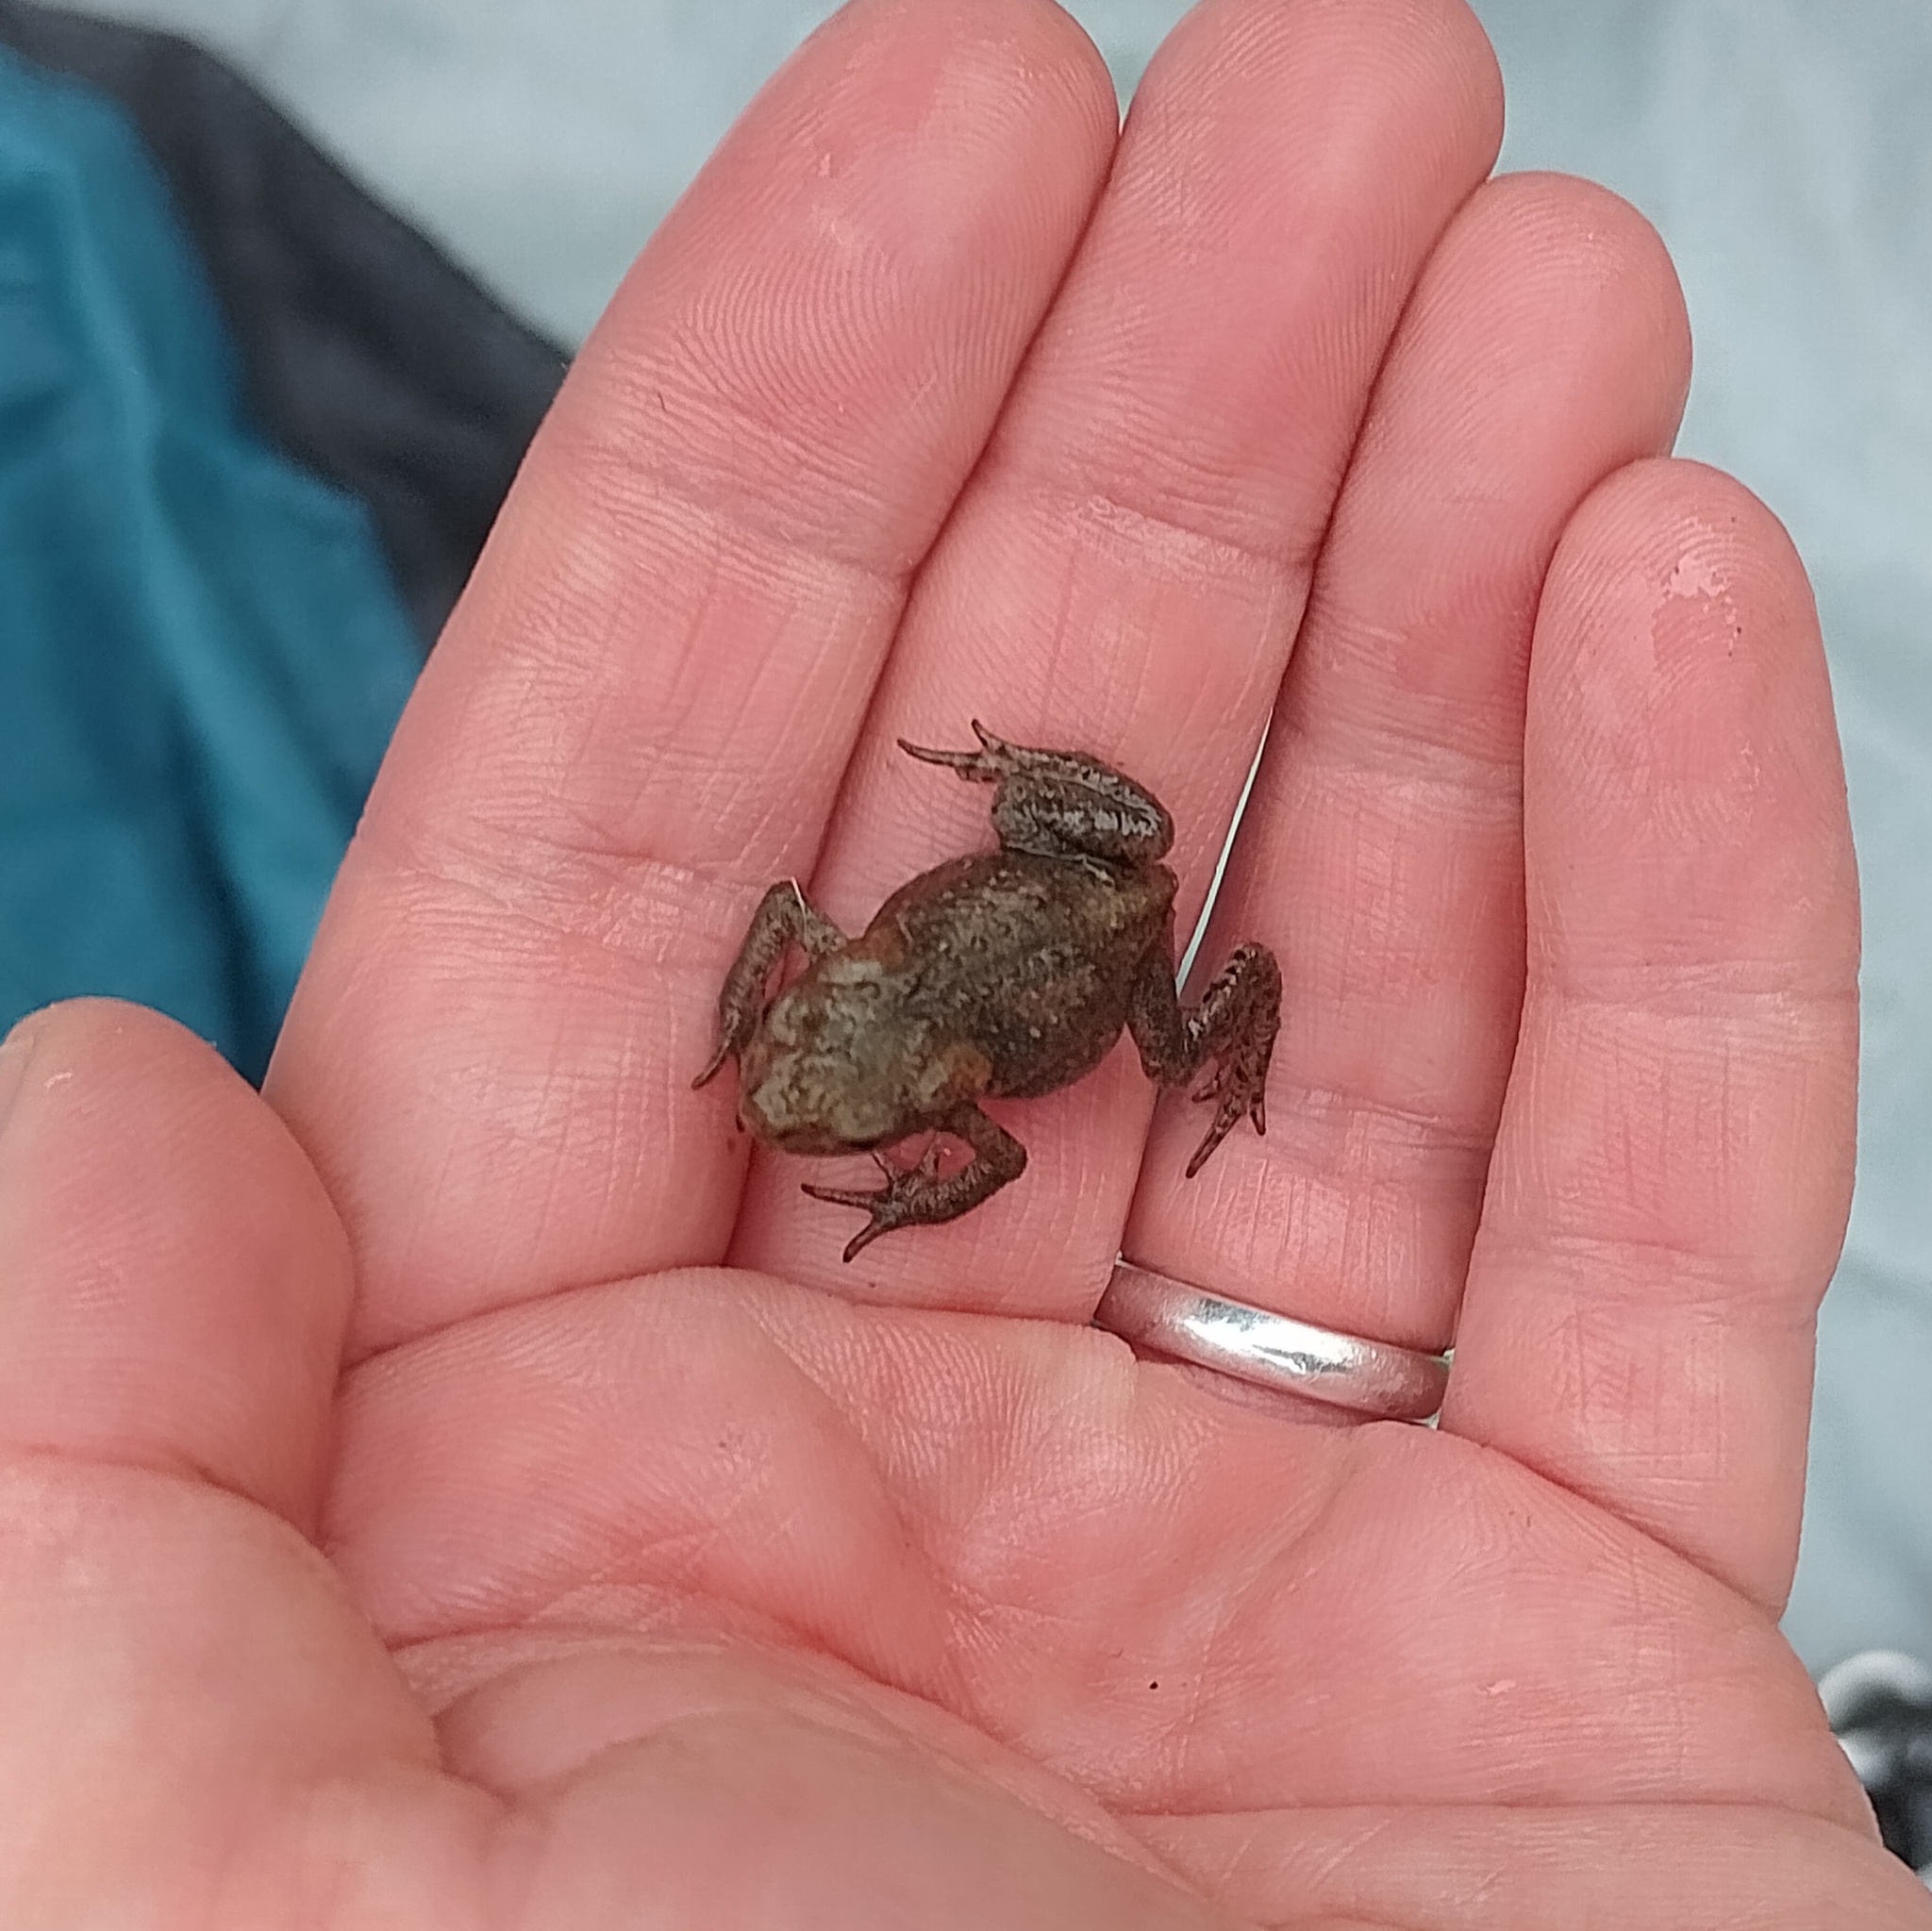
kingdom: Animalia
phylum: Chordata
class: Amphibia
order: Anura
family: Bufonidae
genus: Bufo
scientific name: Bufo bufo
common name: Common toad
